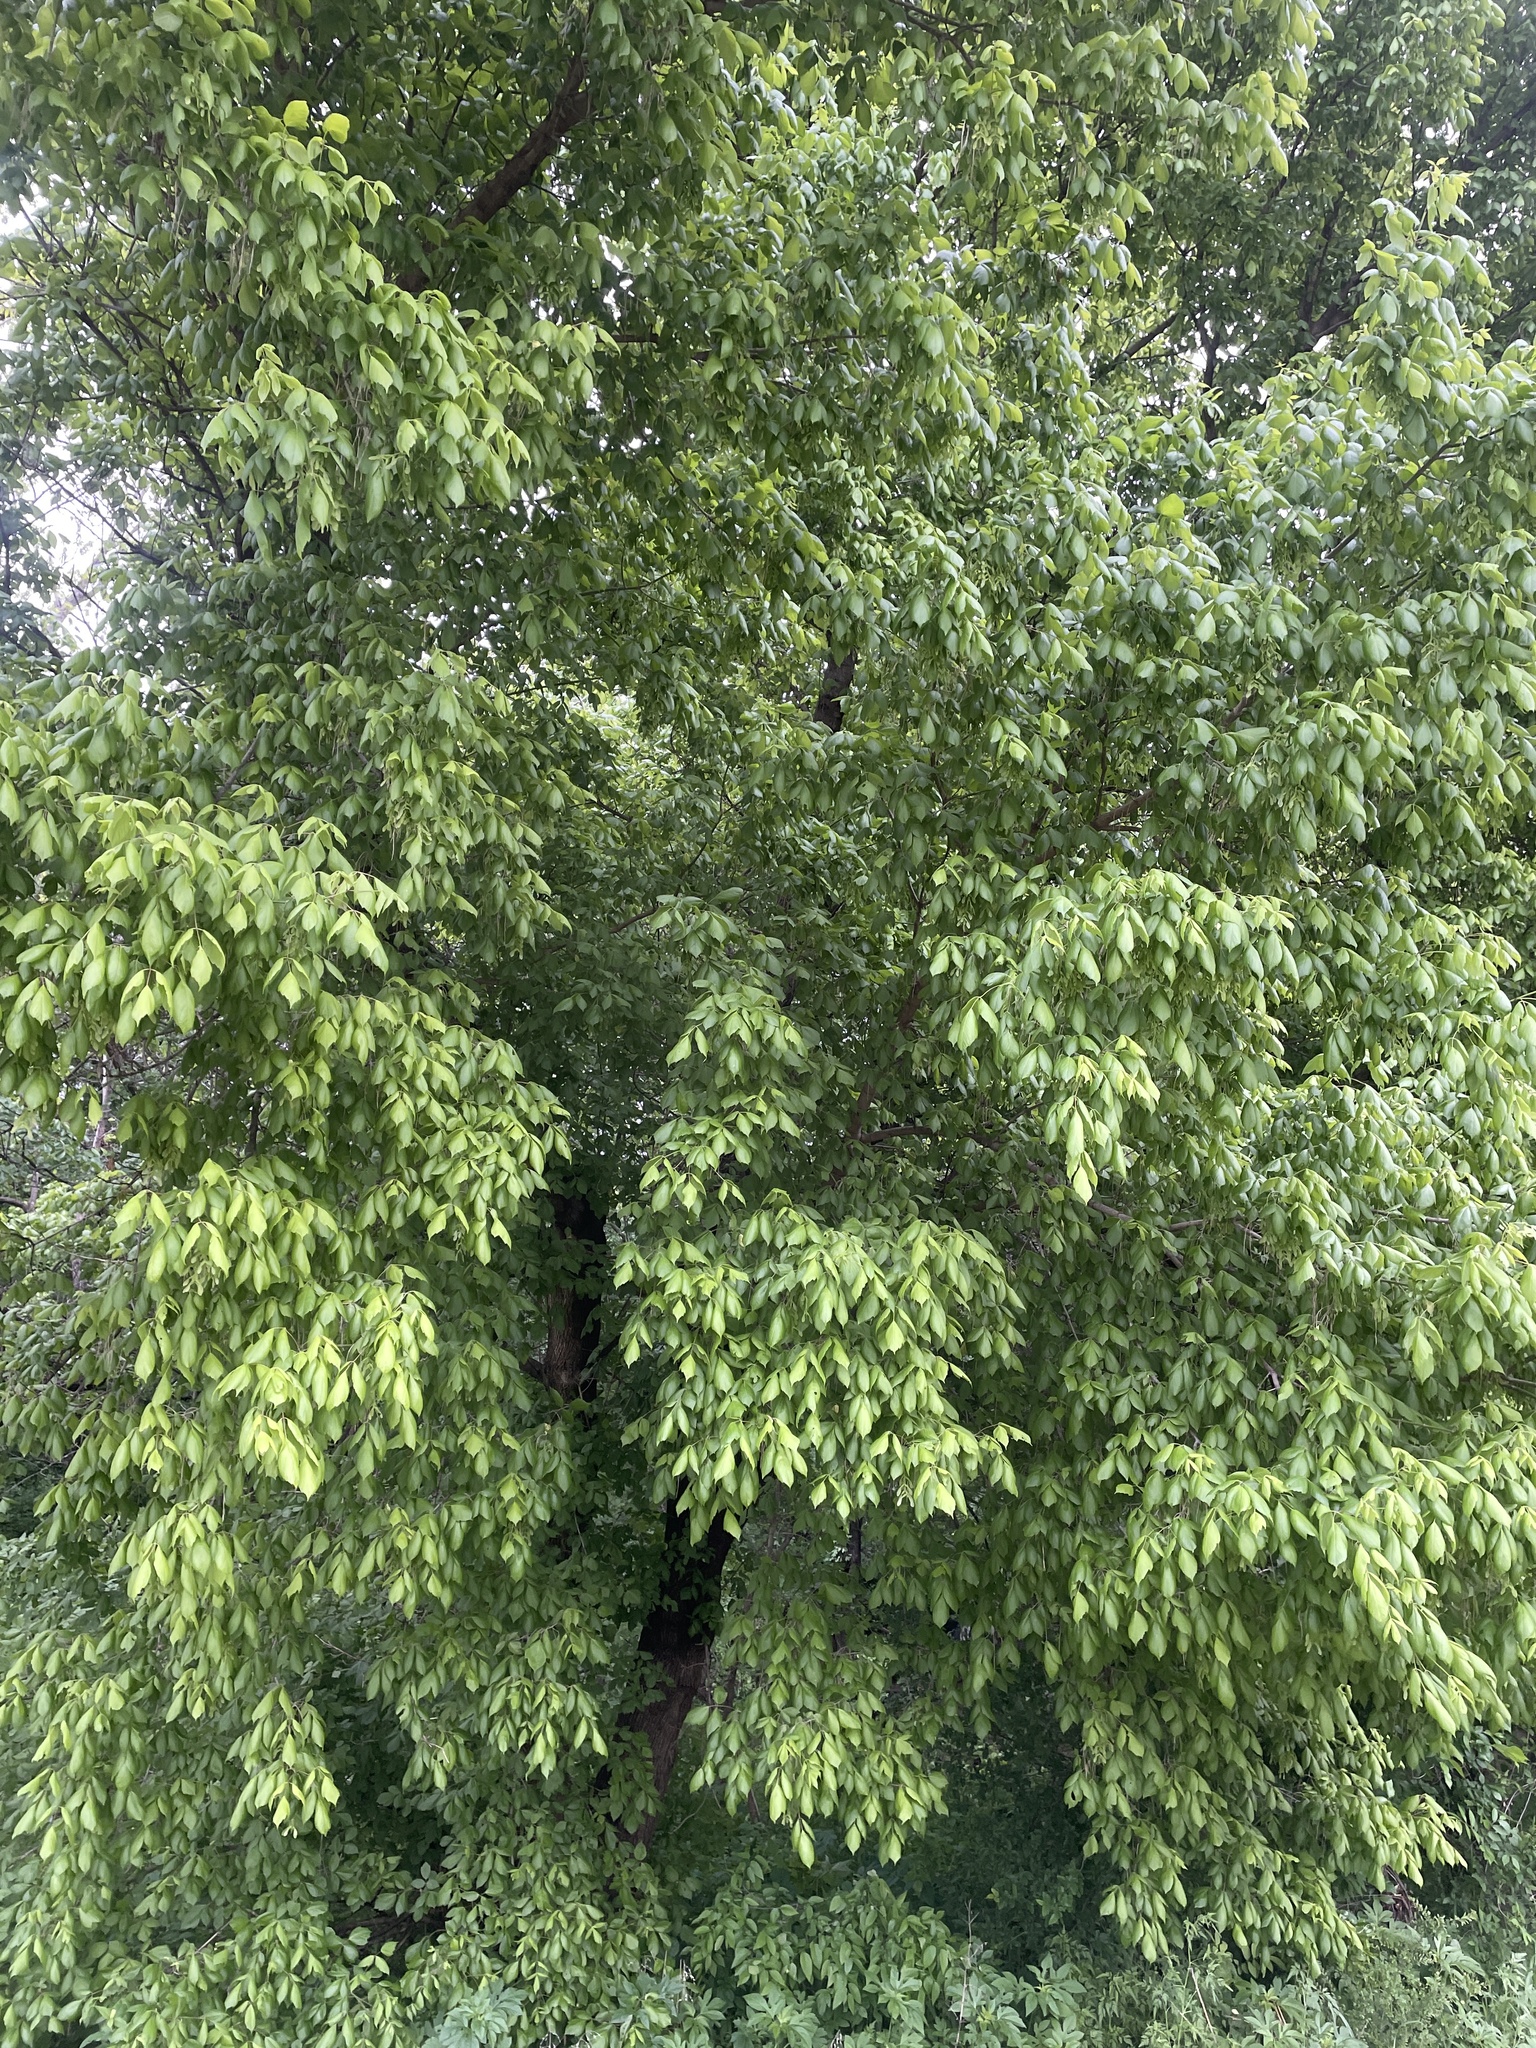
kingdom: Plantae
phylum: Tracheophyta
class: Magnoliopsida
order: Sapindales
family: Sapindaceae
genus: Acer
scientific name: Acer negundo
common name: Ashleaf maple
